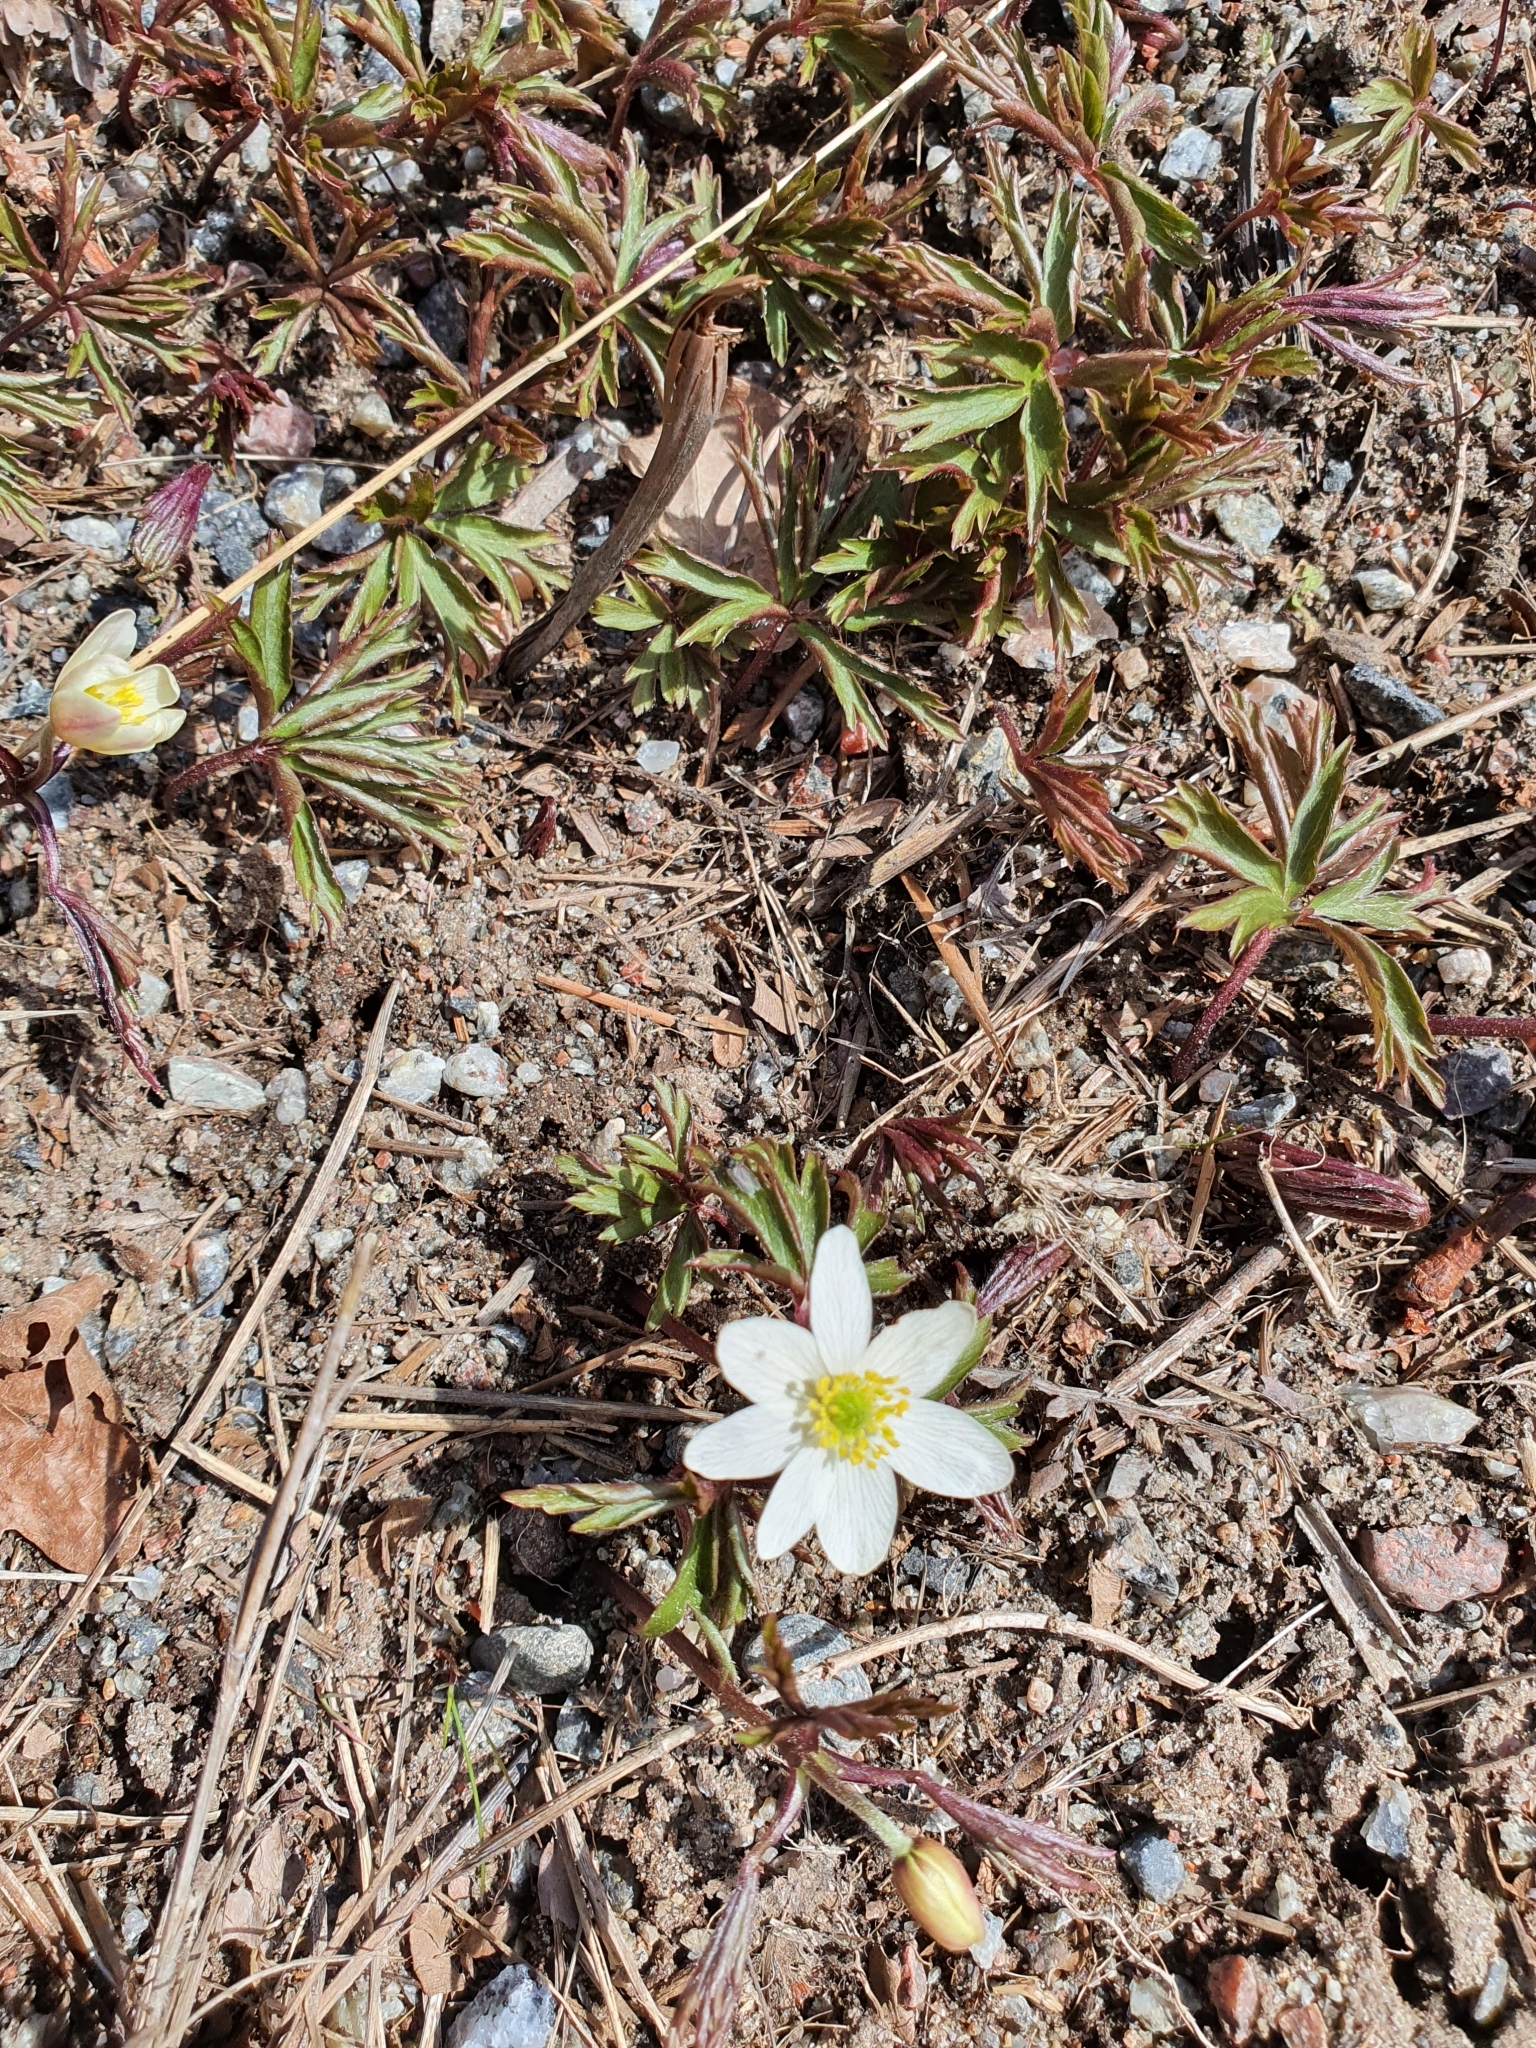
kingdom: Plantae
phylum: Tracheophyta
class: Magnoliopsida
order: Ranunculales
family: Ranunculaceae
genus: Anemone
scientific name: Anemone nemorosa
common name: Wood anemone
